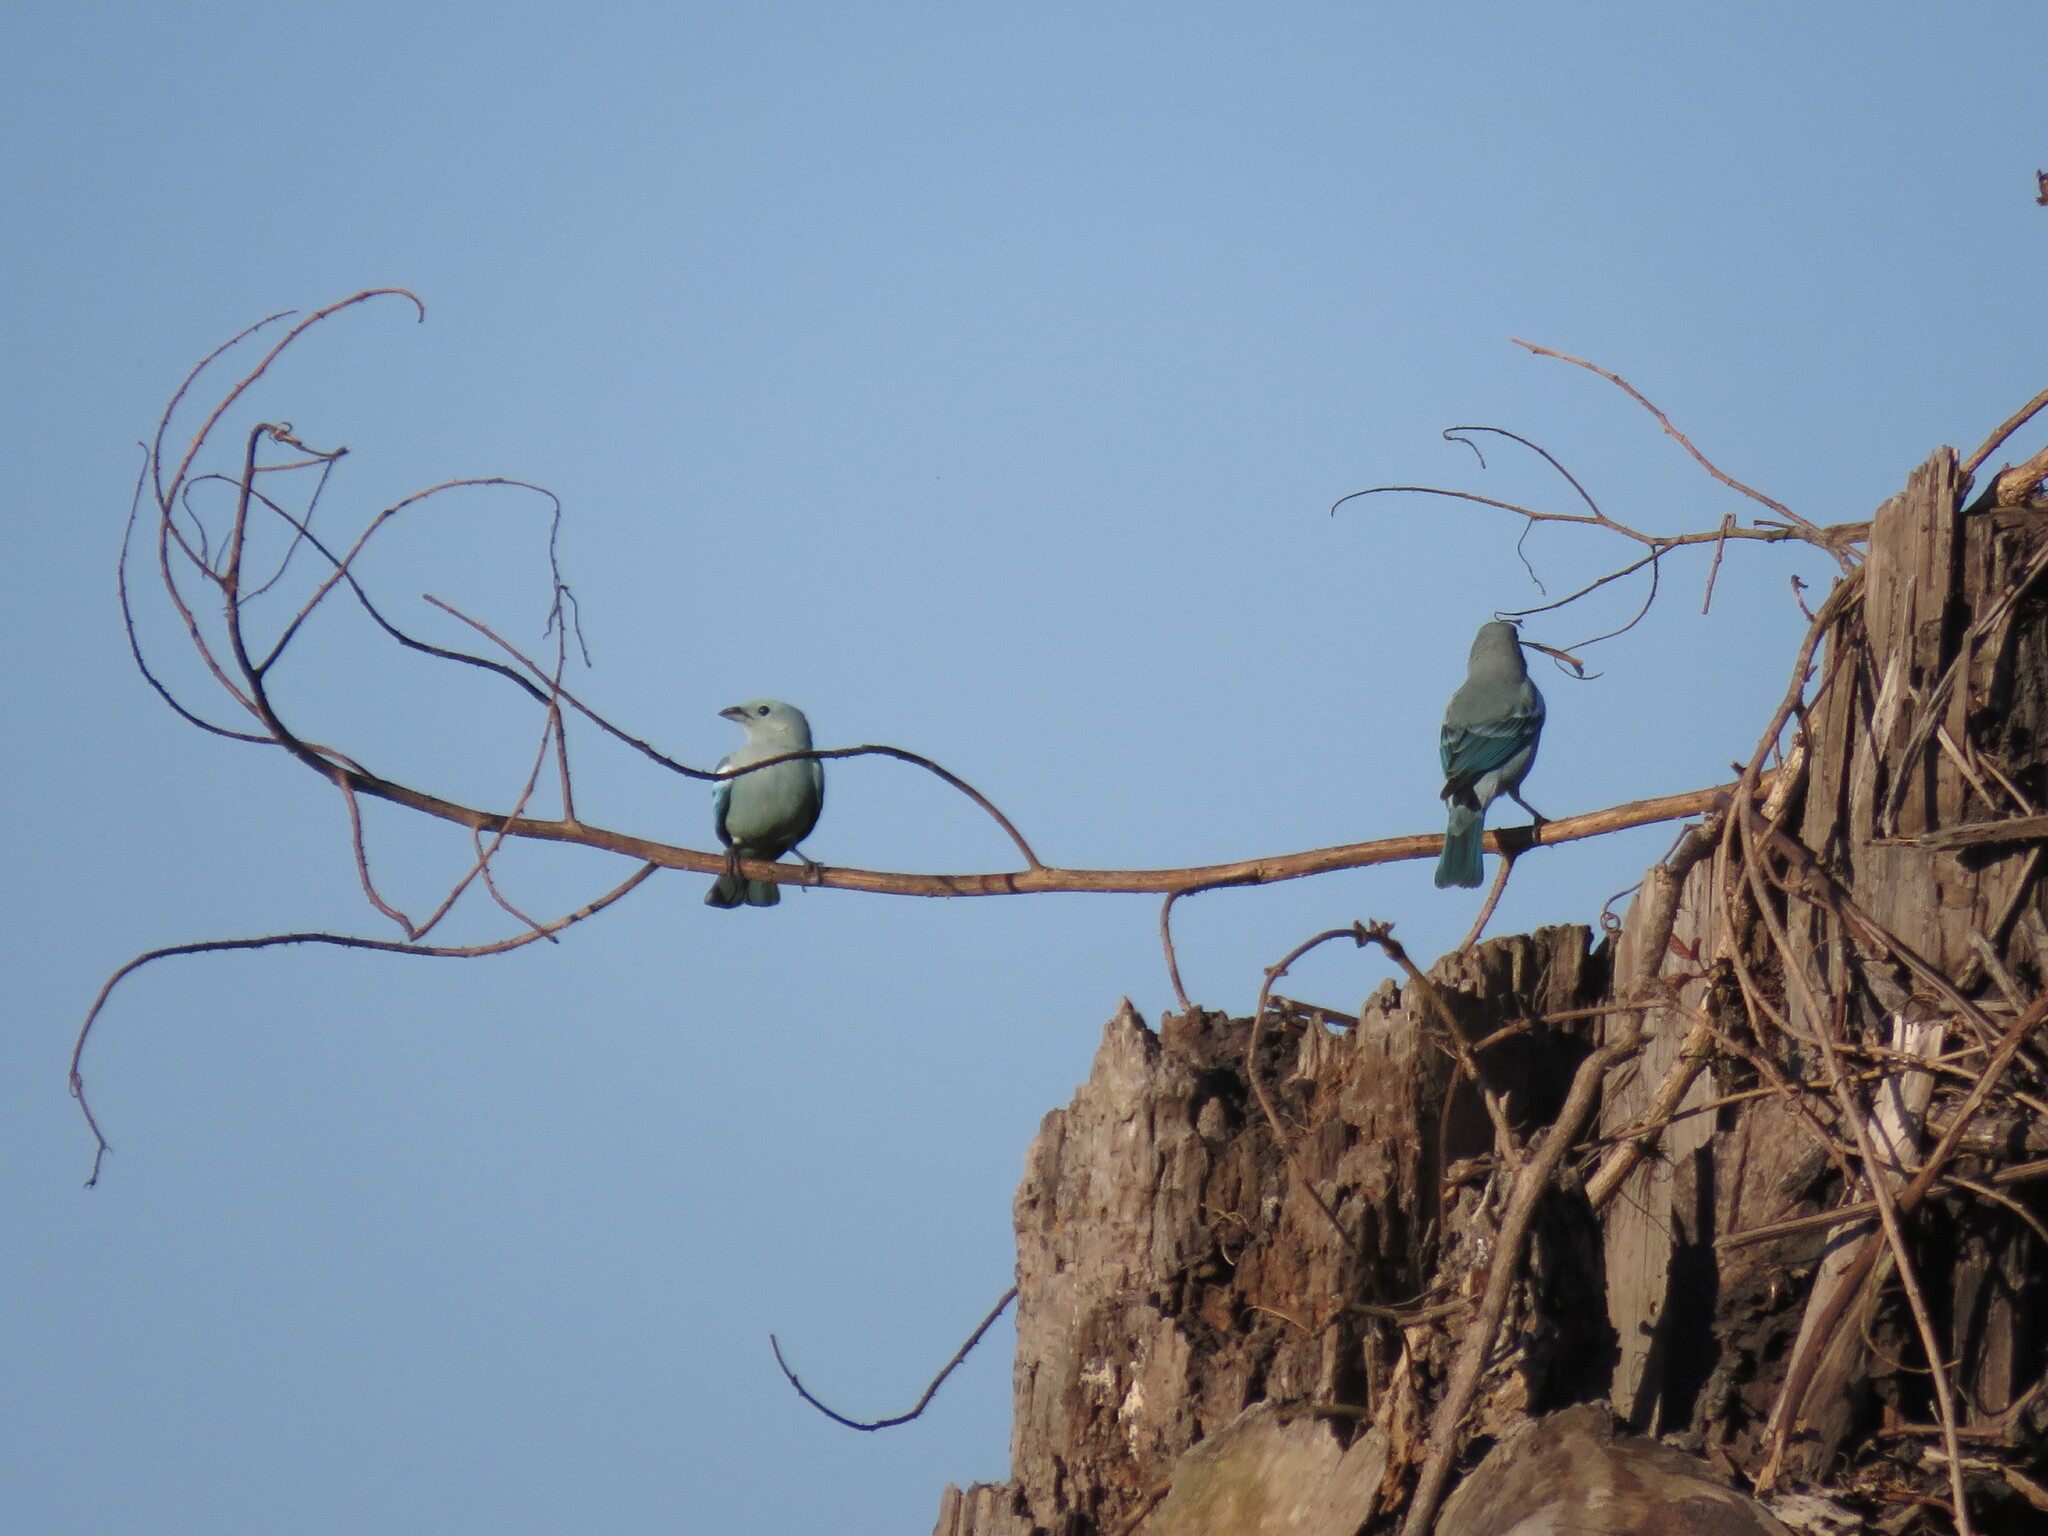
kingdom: Animalia
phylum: Chordata
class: Aves
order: Passeriformes
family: Thraupidae
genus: Thraupis
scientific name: Thraupis episcopus
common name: Blue-grey tanager
